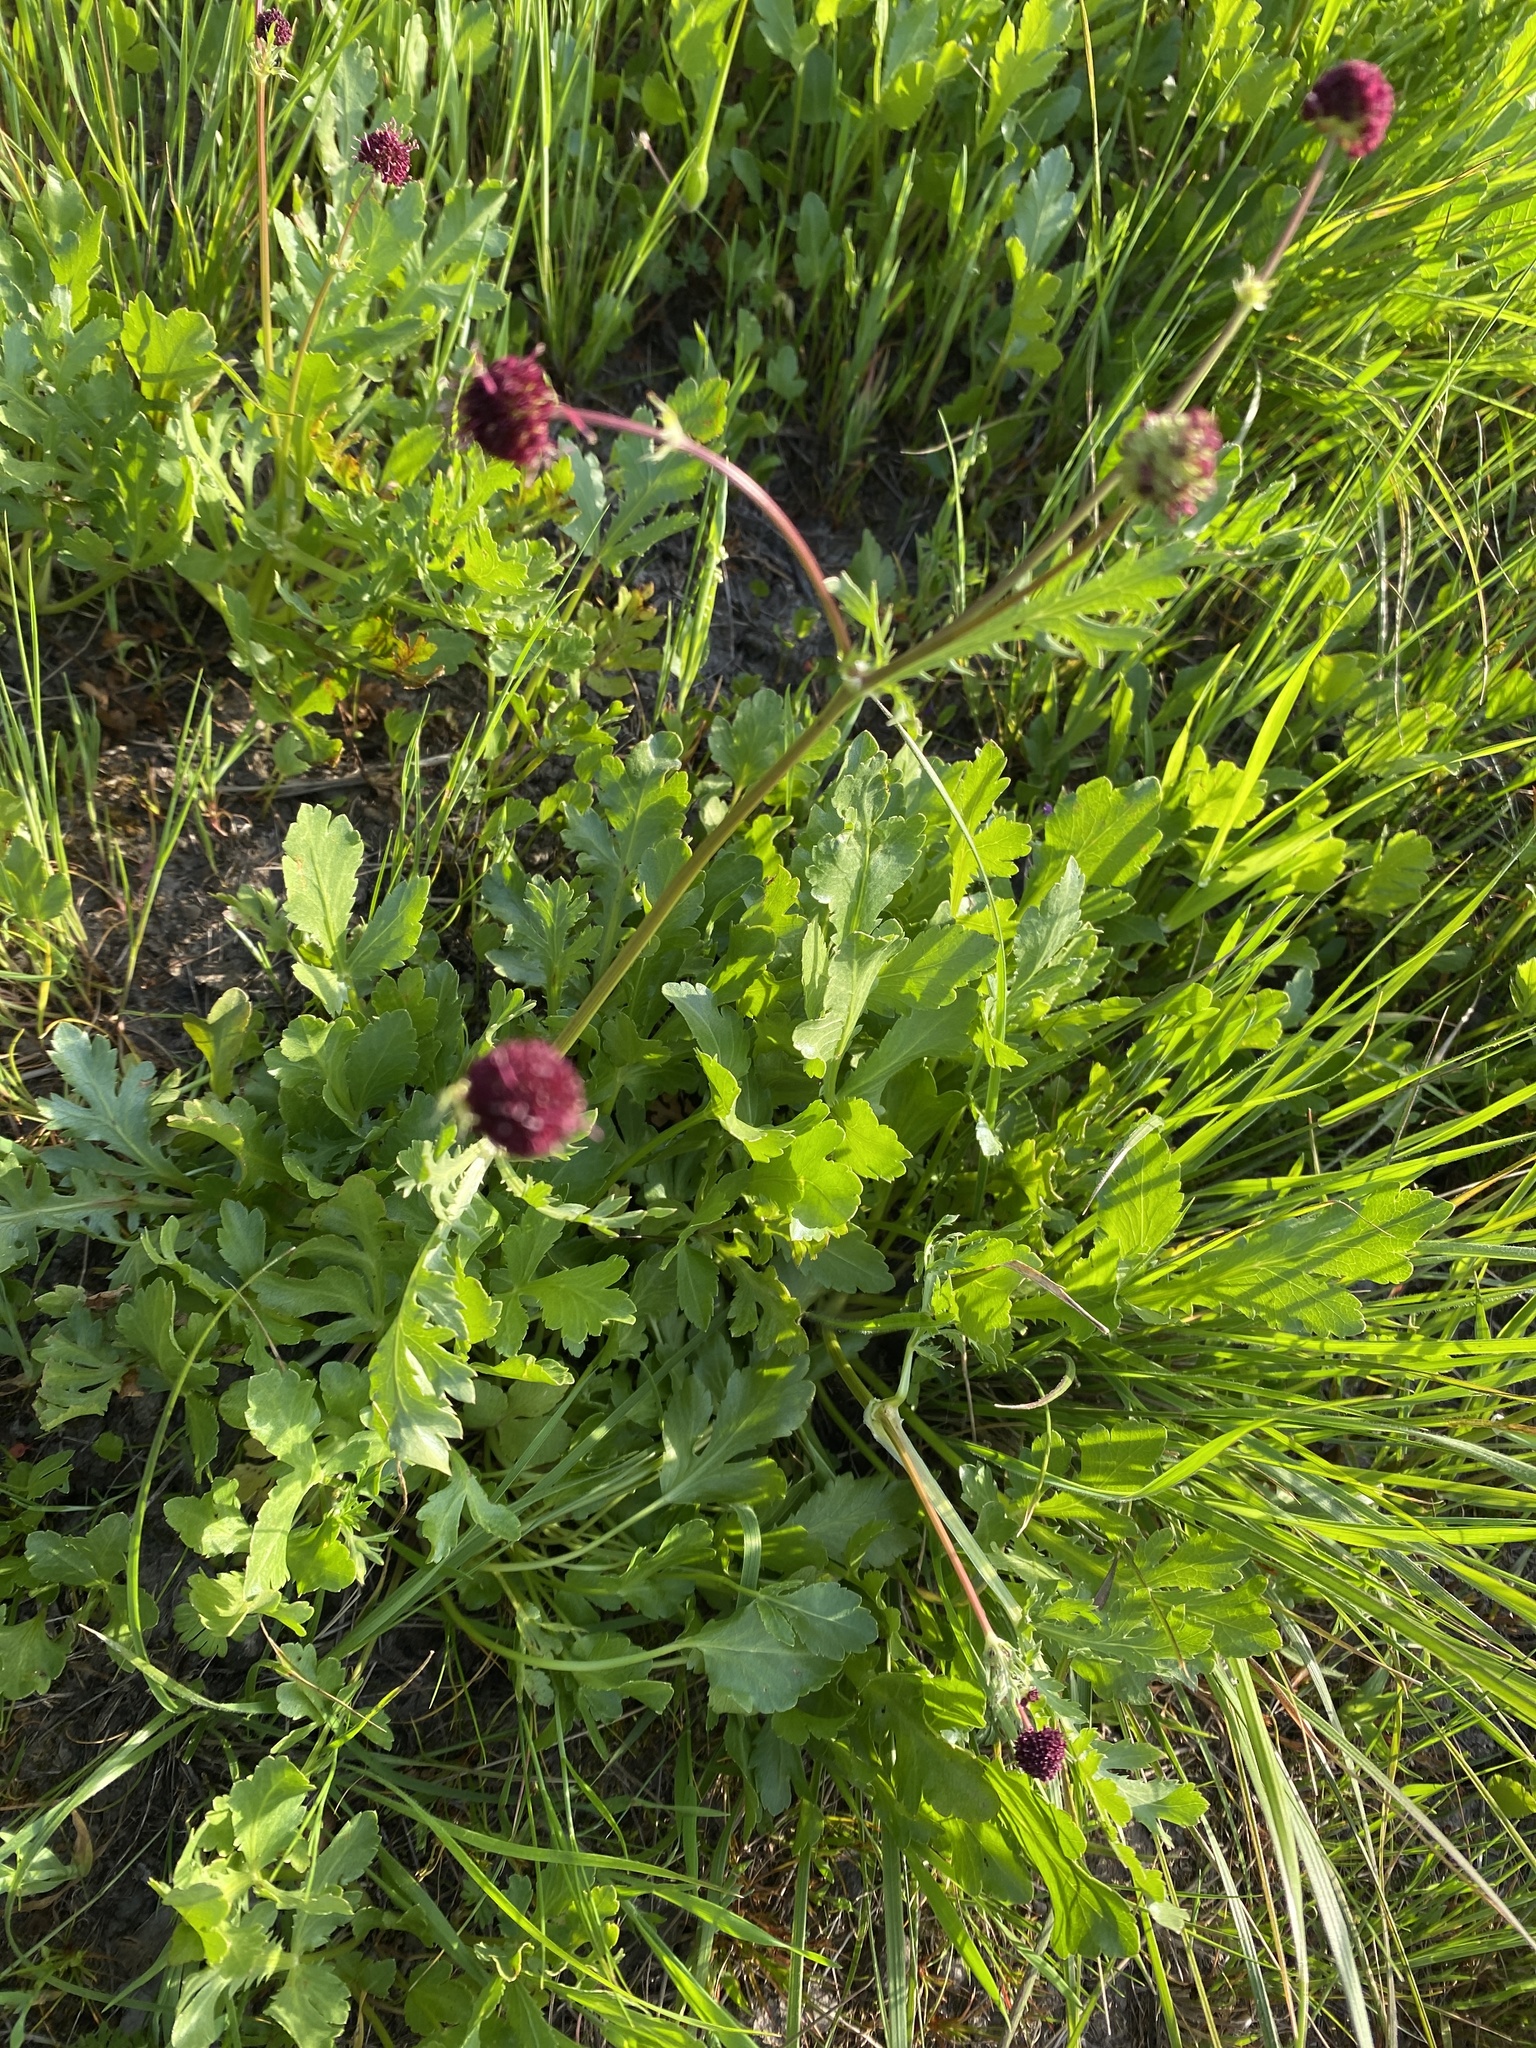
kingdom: Plantae
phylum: Tracheophyta
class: Magnoliopsida
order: Apiales
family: Apiaceae
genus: Sanicula
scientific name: Sanicula bipinnatifida
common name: Shoe-buttons
